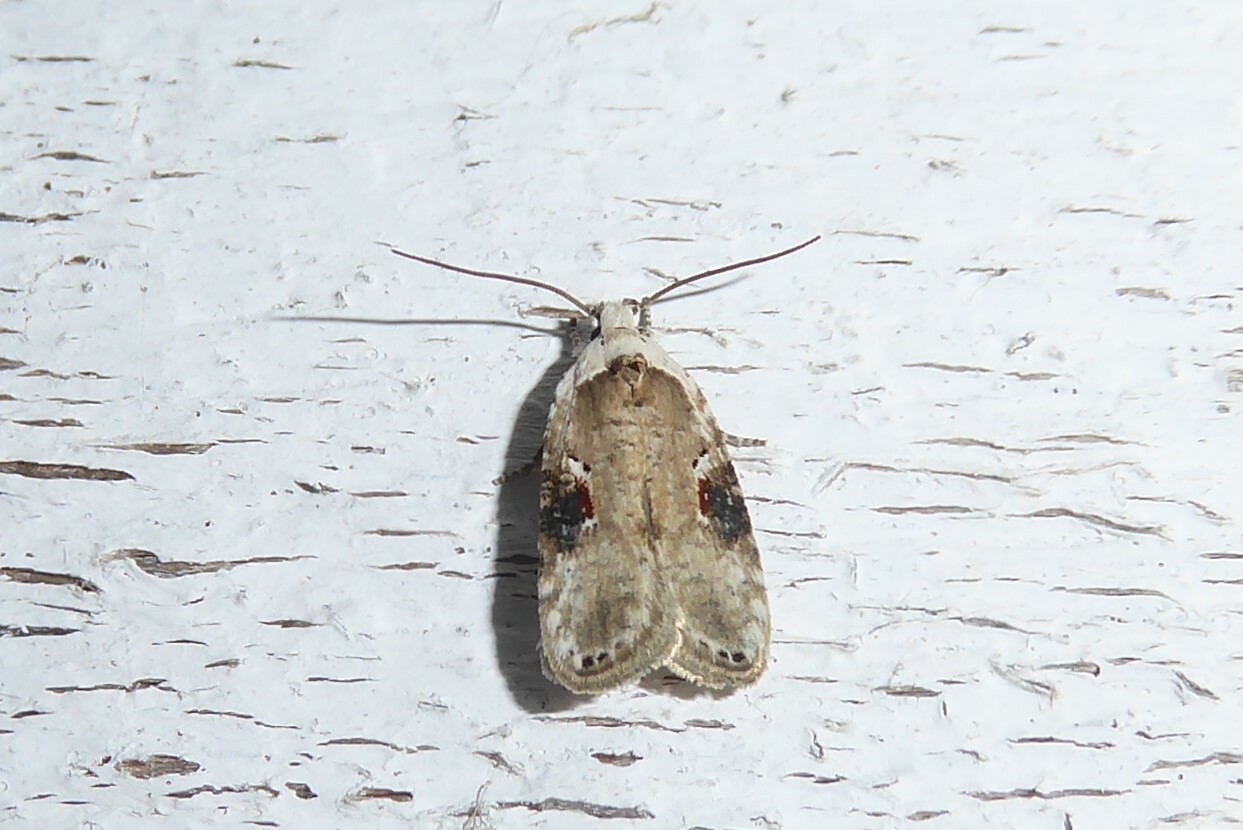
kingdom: Animalia
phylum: Arthropoda
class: Insecta
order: Lepidoptera
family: Depressariidae
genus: Agonopterix
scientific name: Agonopterix alstroemeriana
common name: Moth
